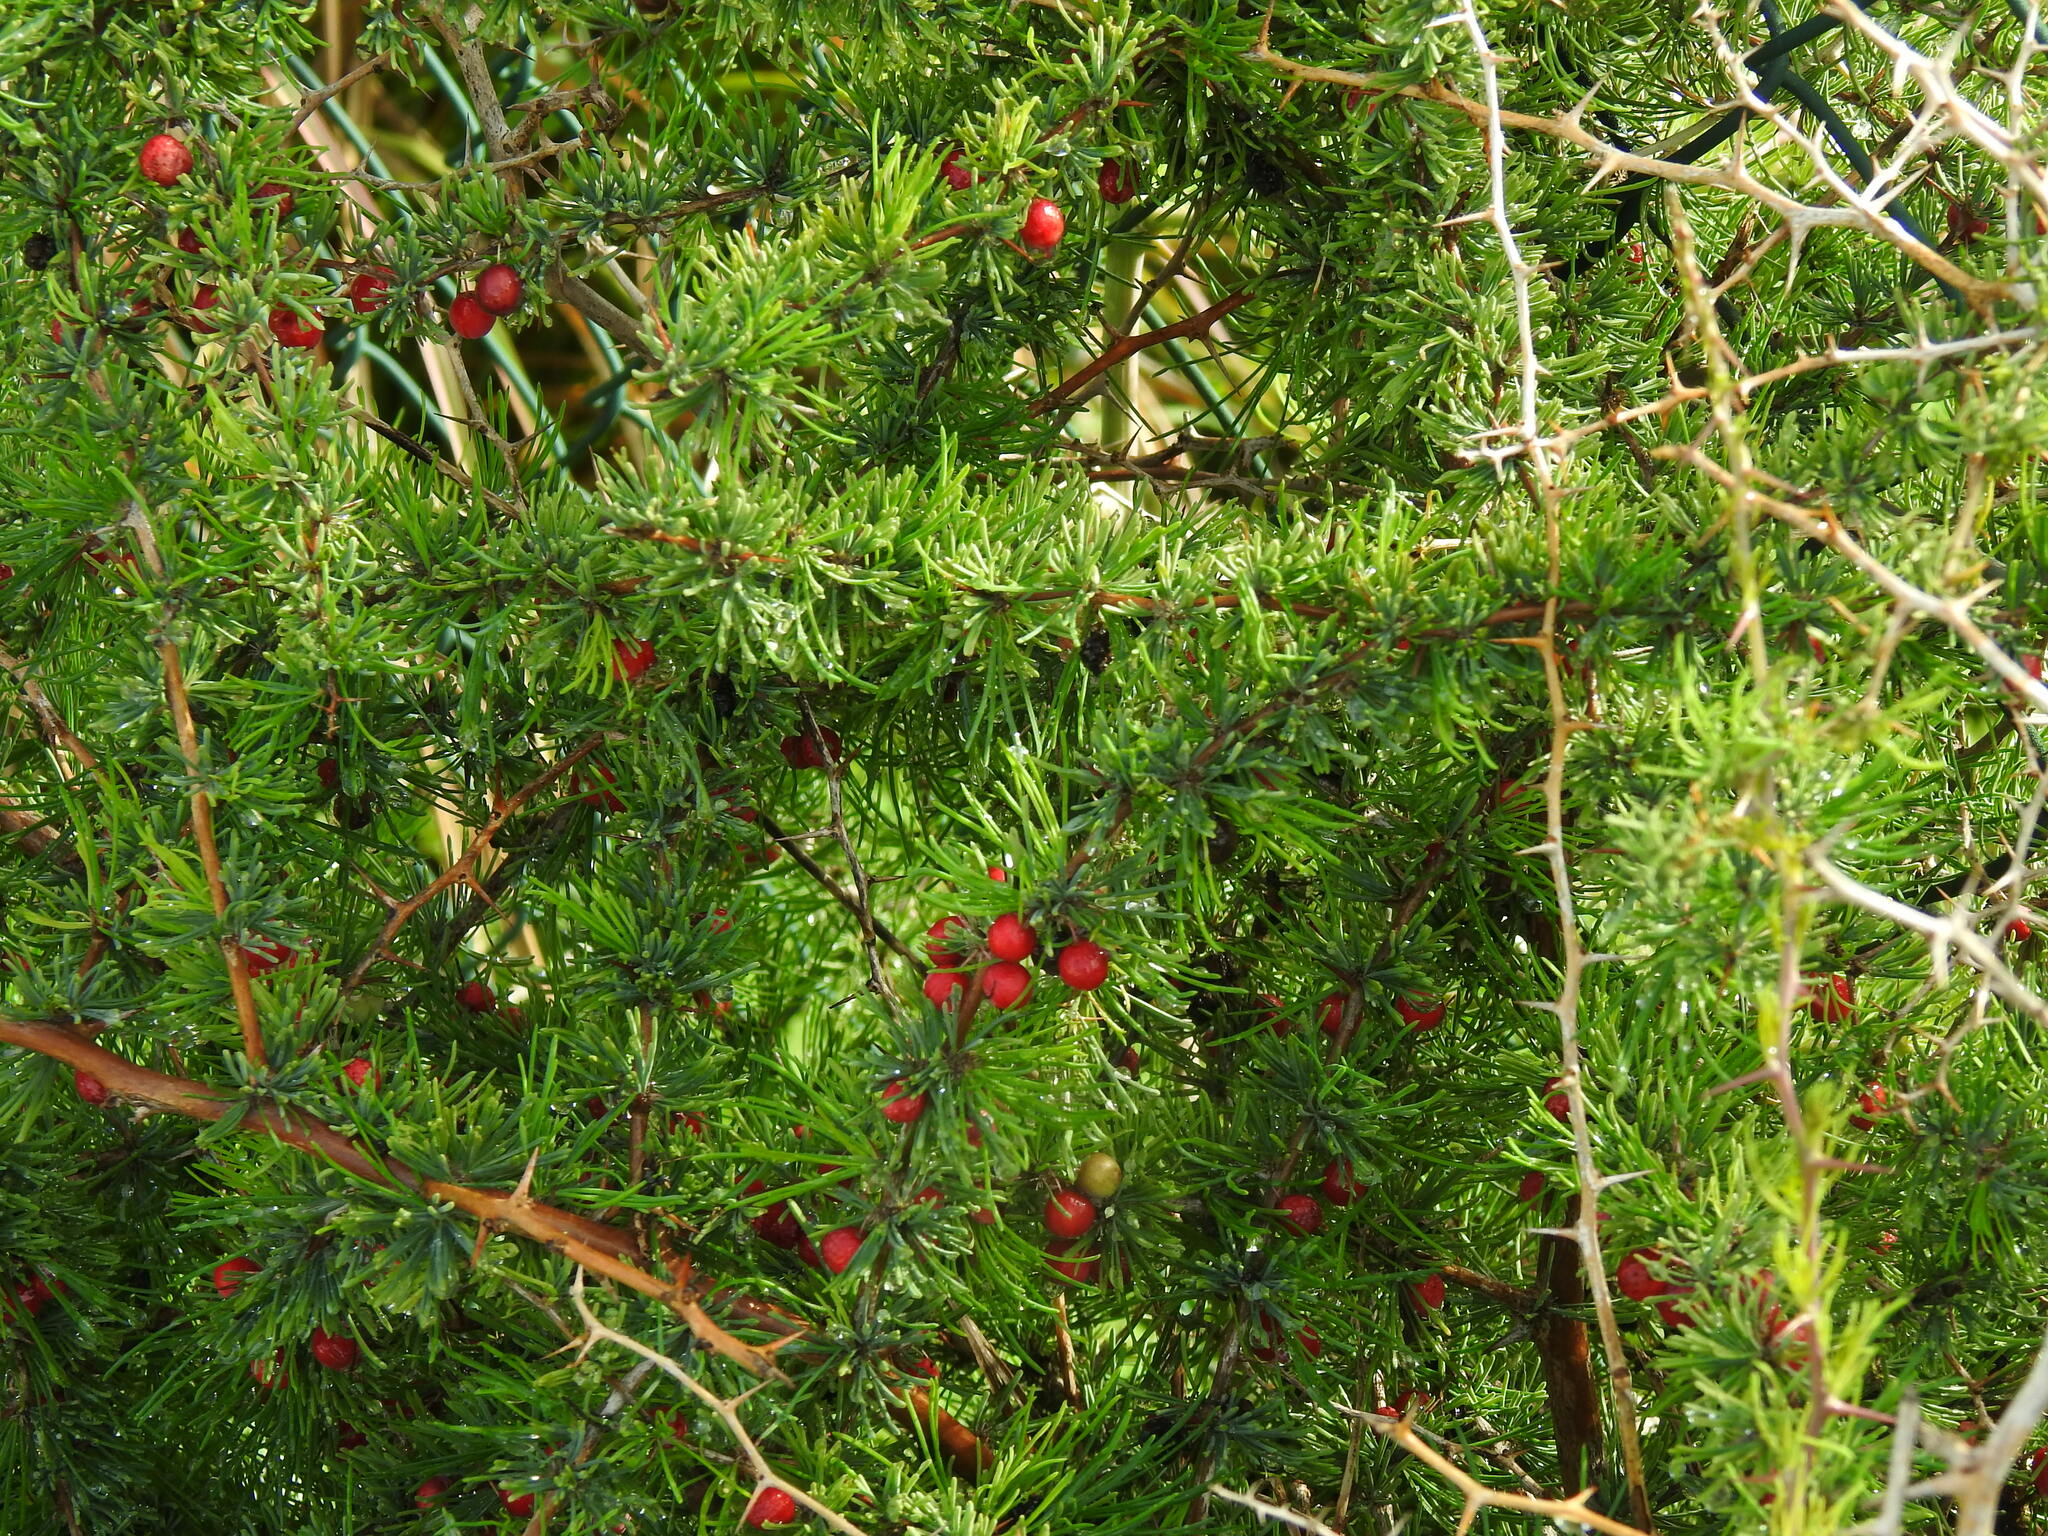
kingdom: Plantae
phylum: Tracheophyta
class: Liliopsida
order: Asparagales
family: Asparagaceae
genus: Asparagus
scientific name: Asparagus albus
